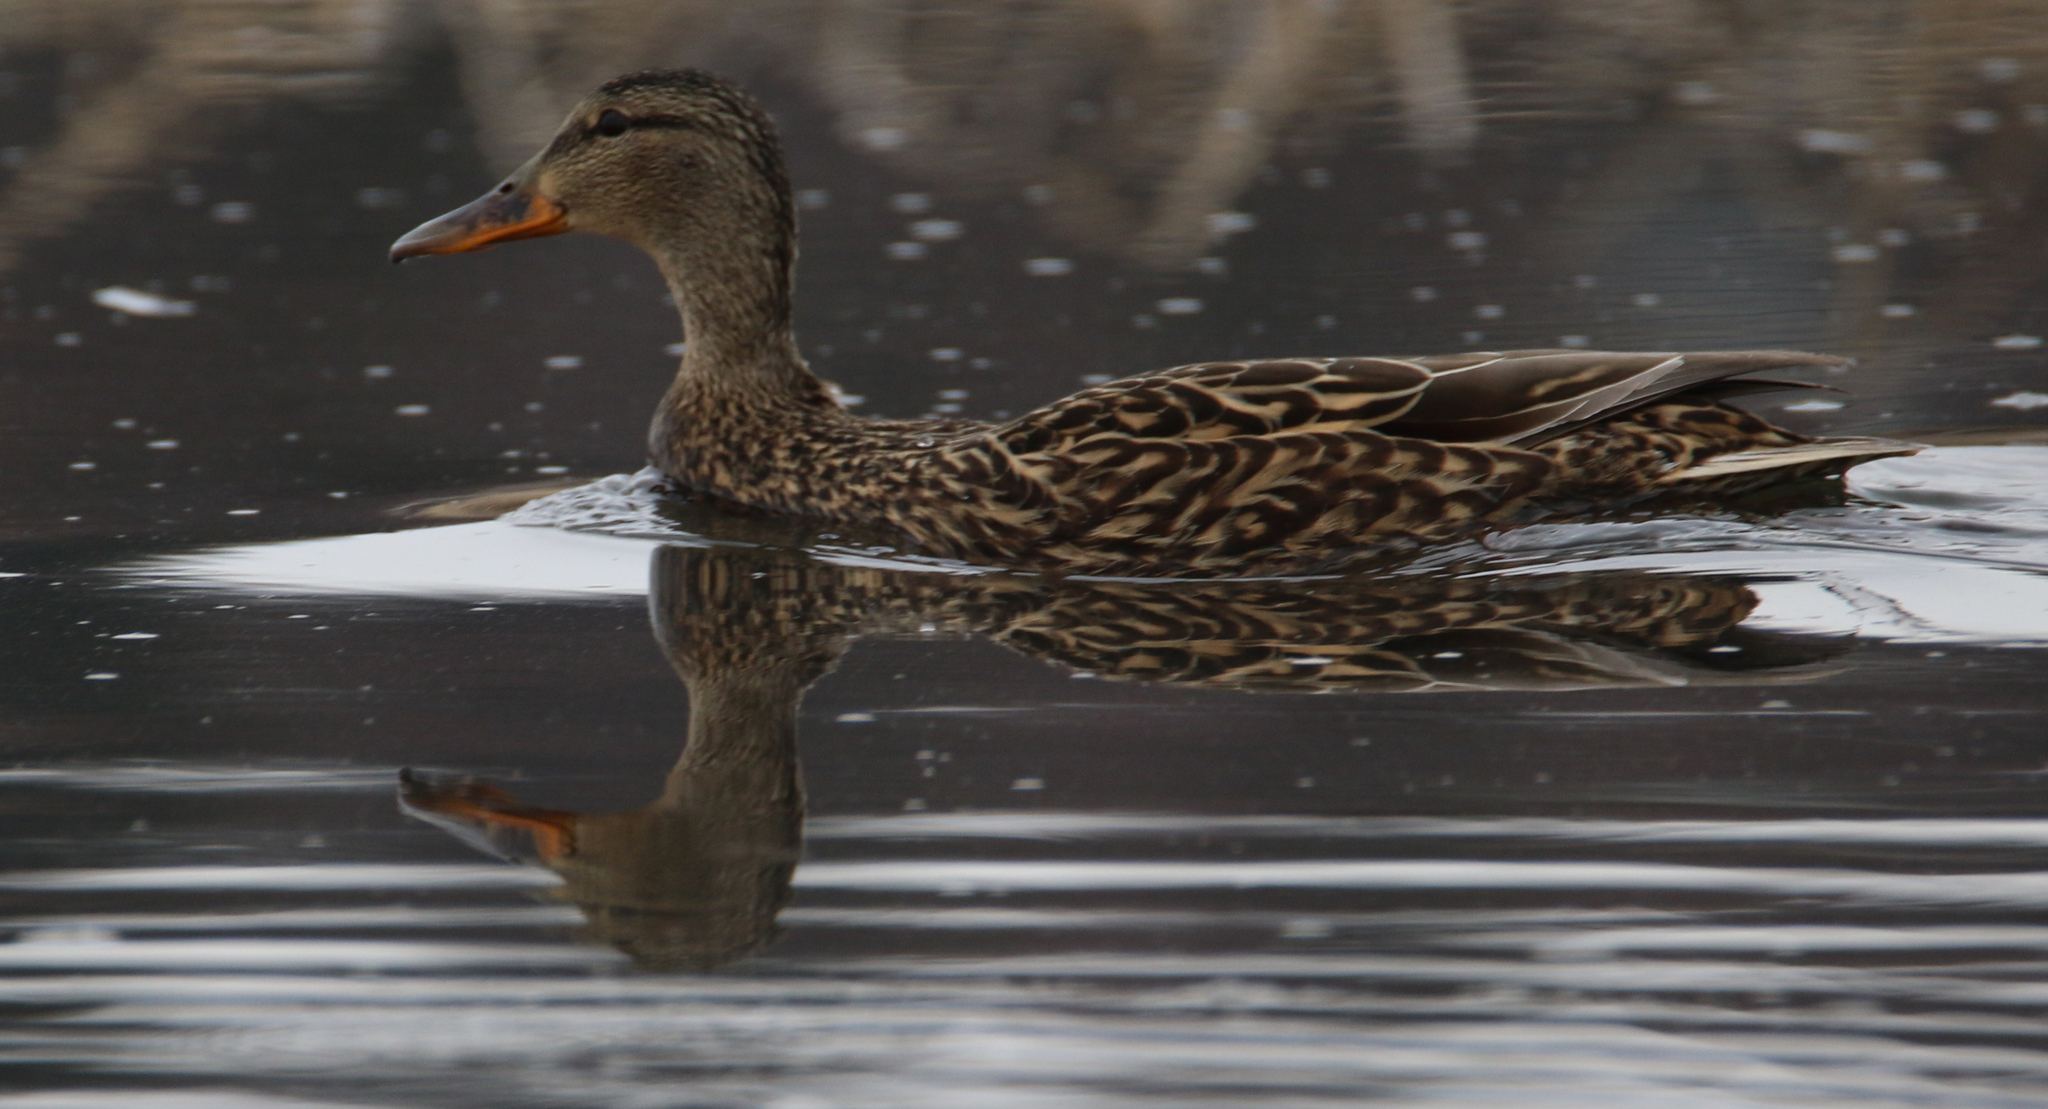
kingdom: Animalia
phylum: Chordata
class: Aves
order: Anseriformes
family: Anatidae
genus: Anas
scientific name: Anas platyrhynchos
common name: Mallard
